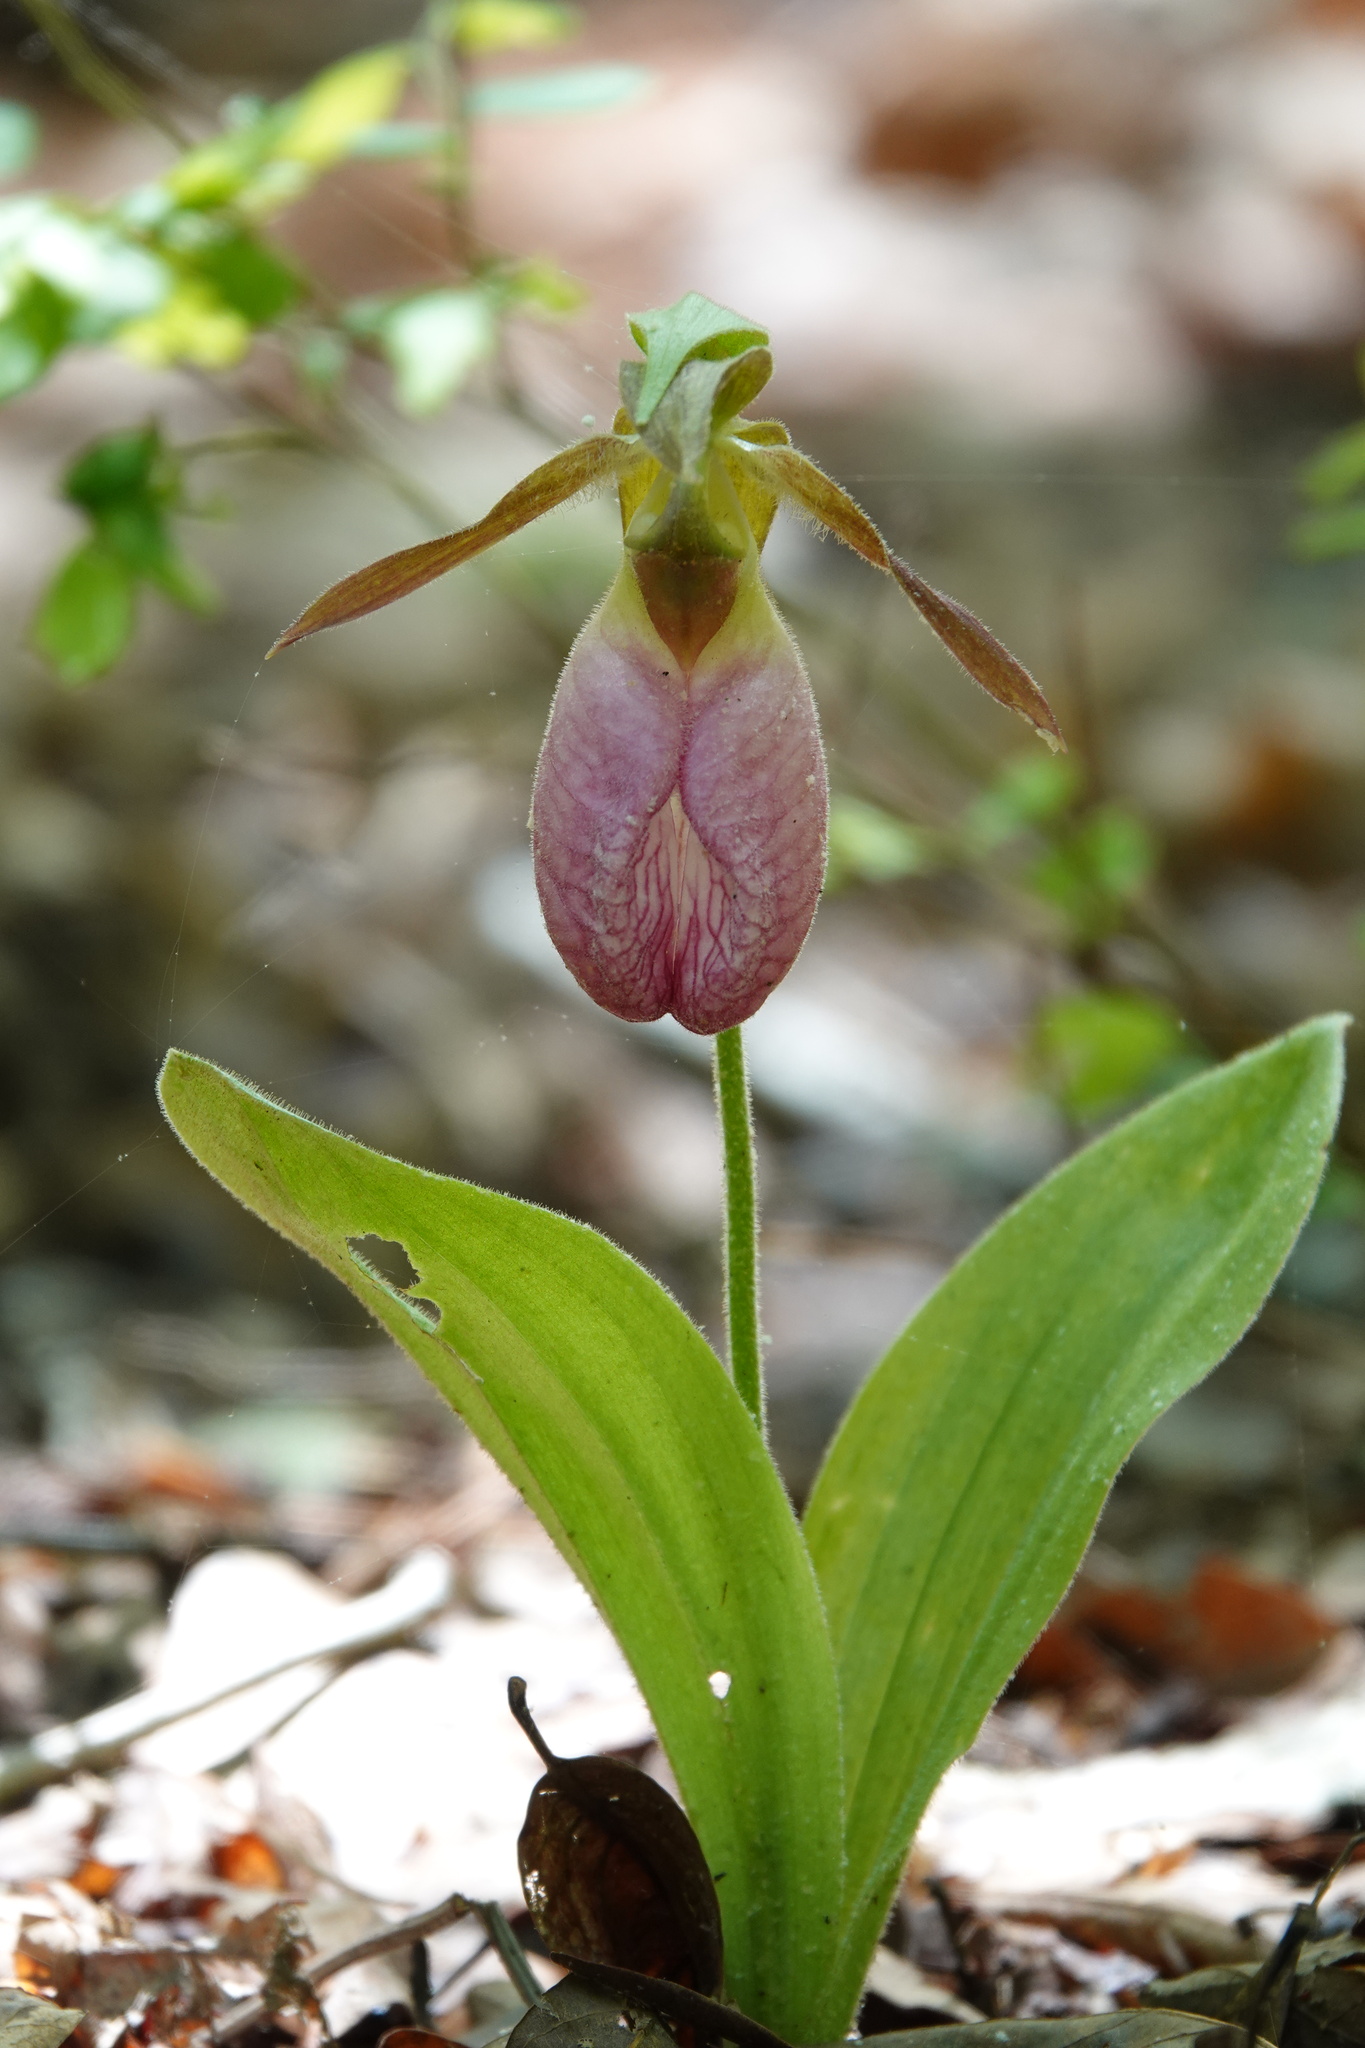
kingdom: Plantae
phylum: Tracheophyta
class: Liliopsida
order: Asparagales
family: Orchidaceae
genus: Cypripedium
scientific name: Cypripedium acaule
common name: Pink lady's-slipper
